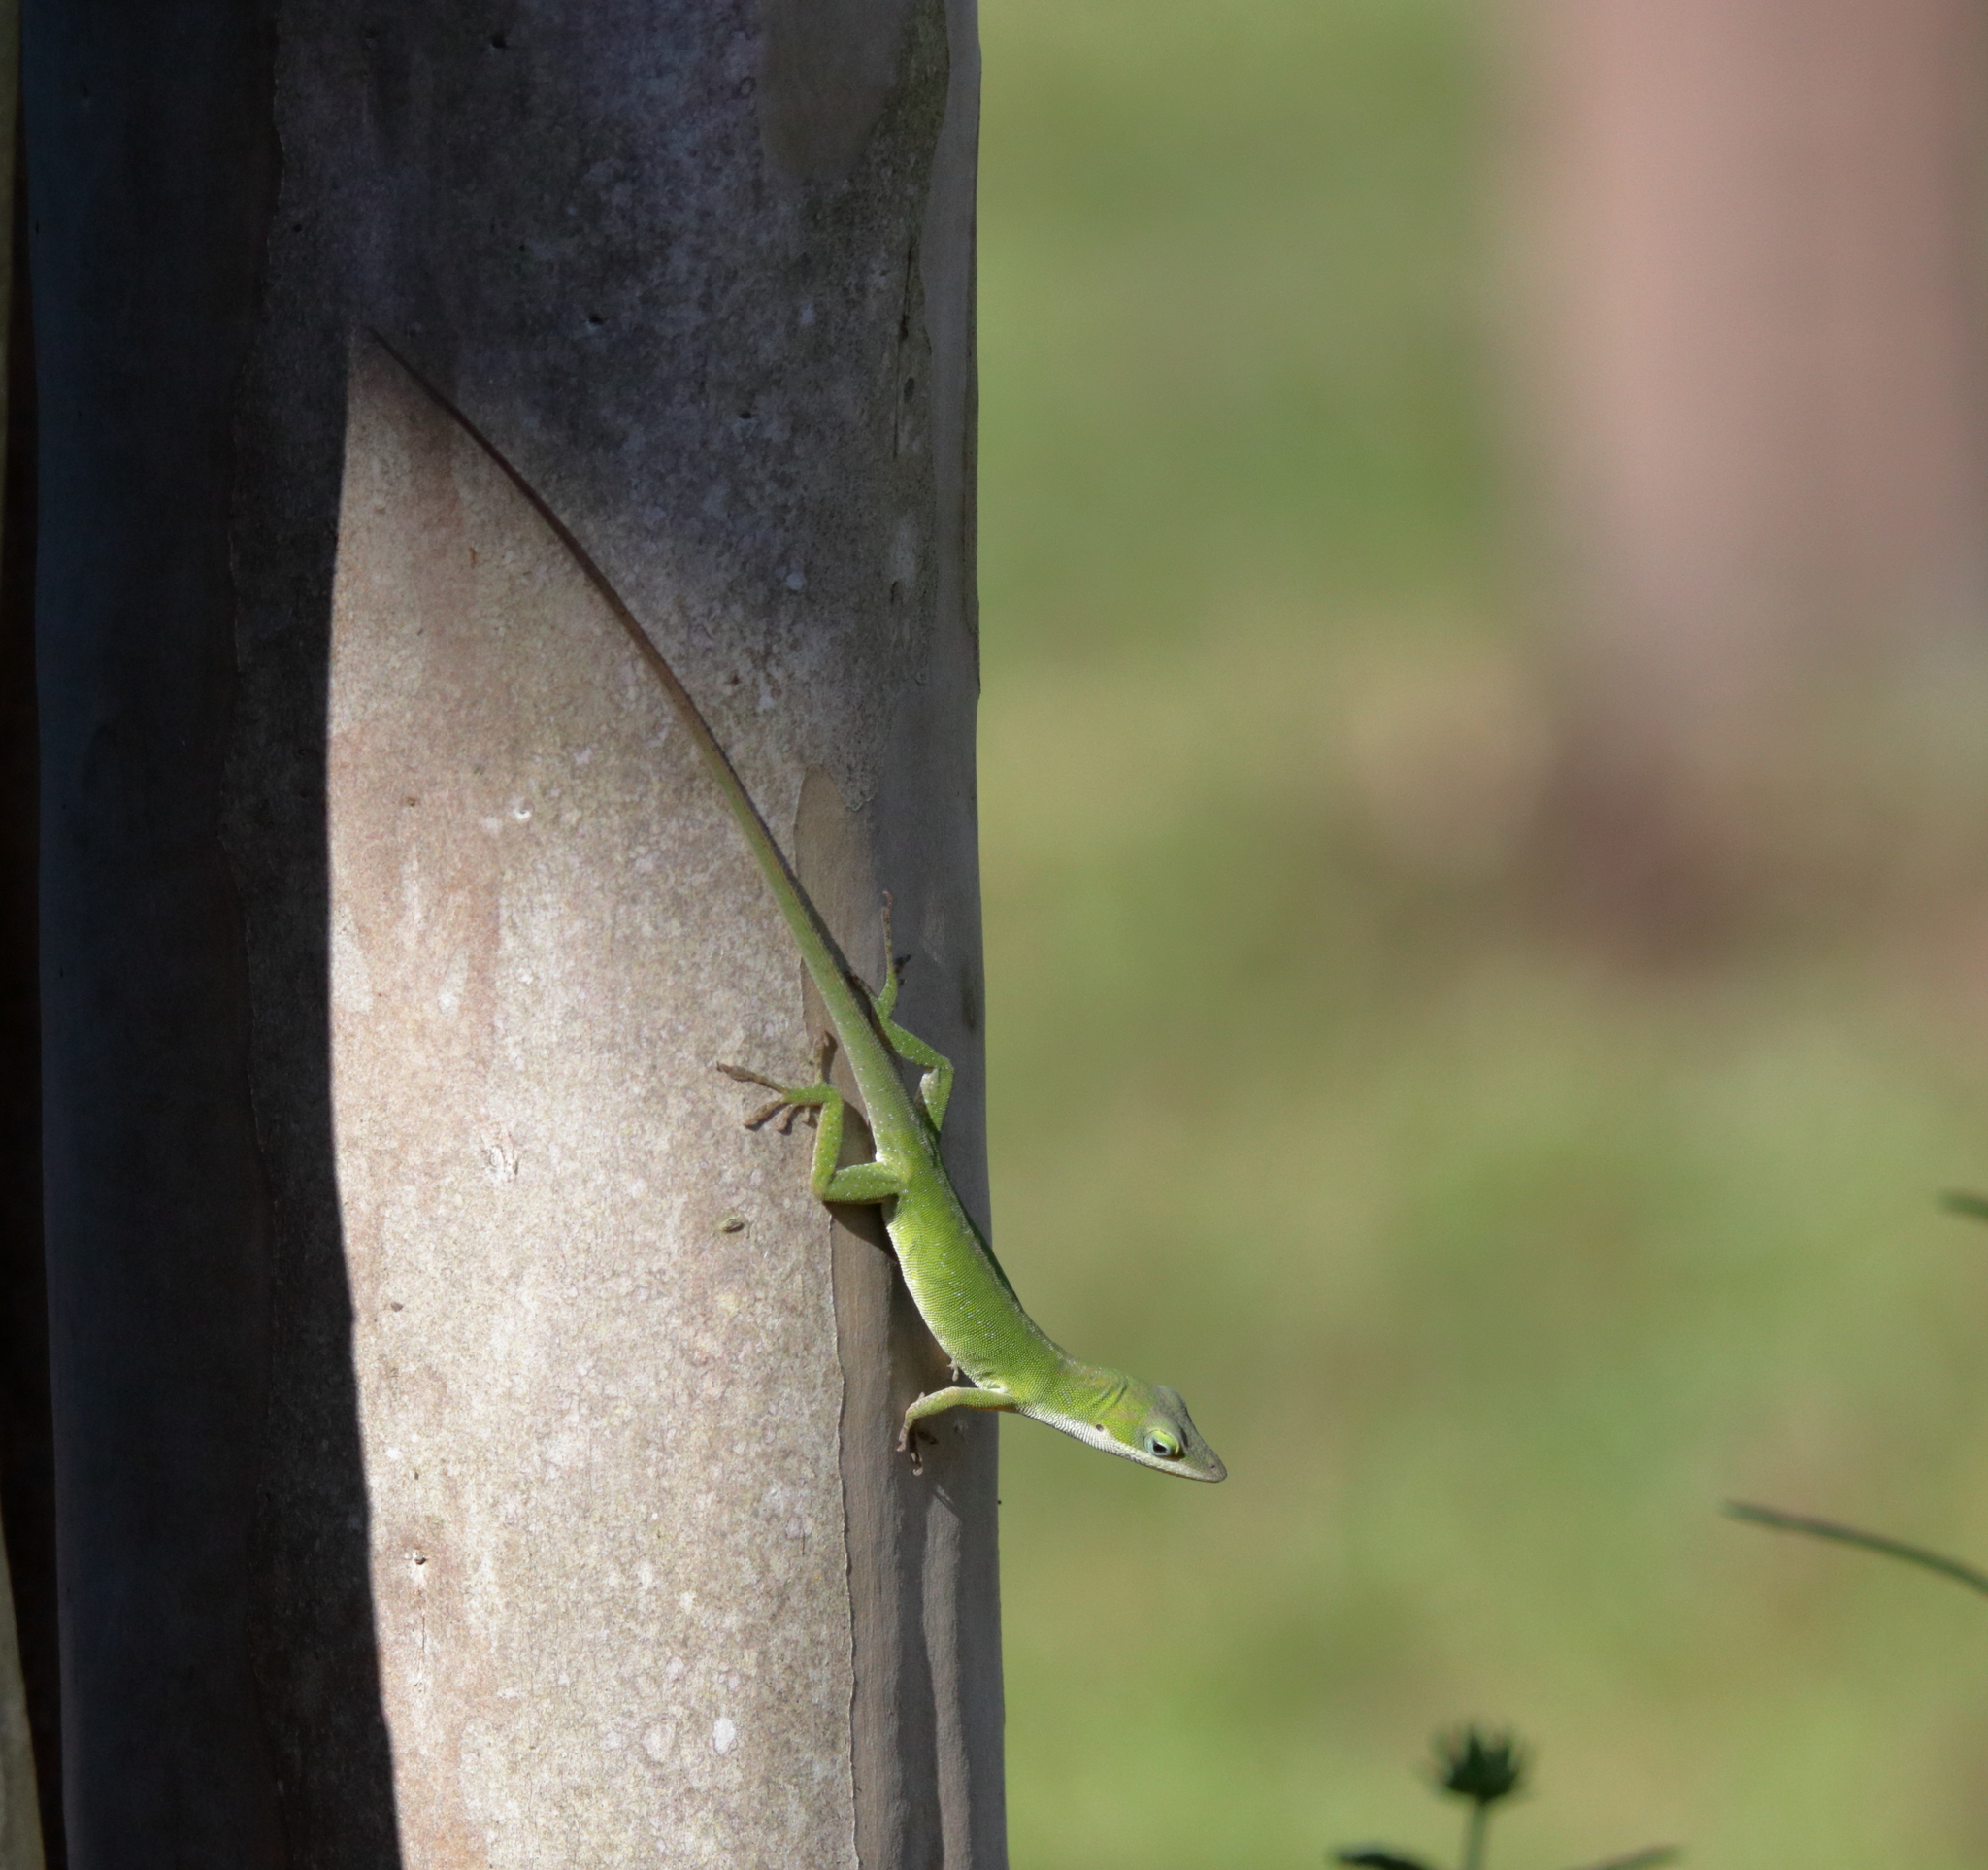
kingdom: Animalia
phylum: Chordata
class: Squamata
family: Dactyloidae
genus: Anolis
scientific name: Anolis carolinensis
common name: Green anole
